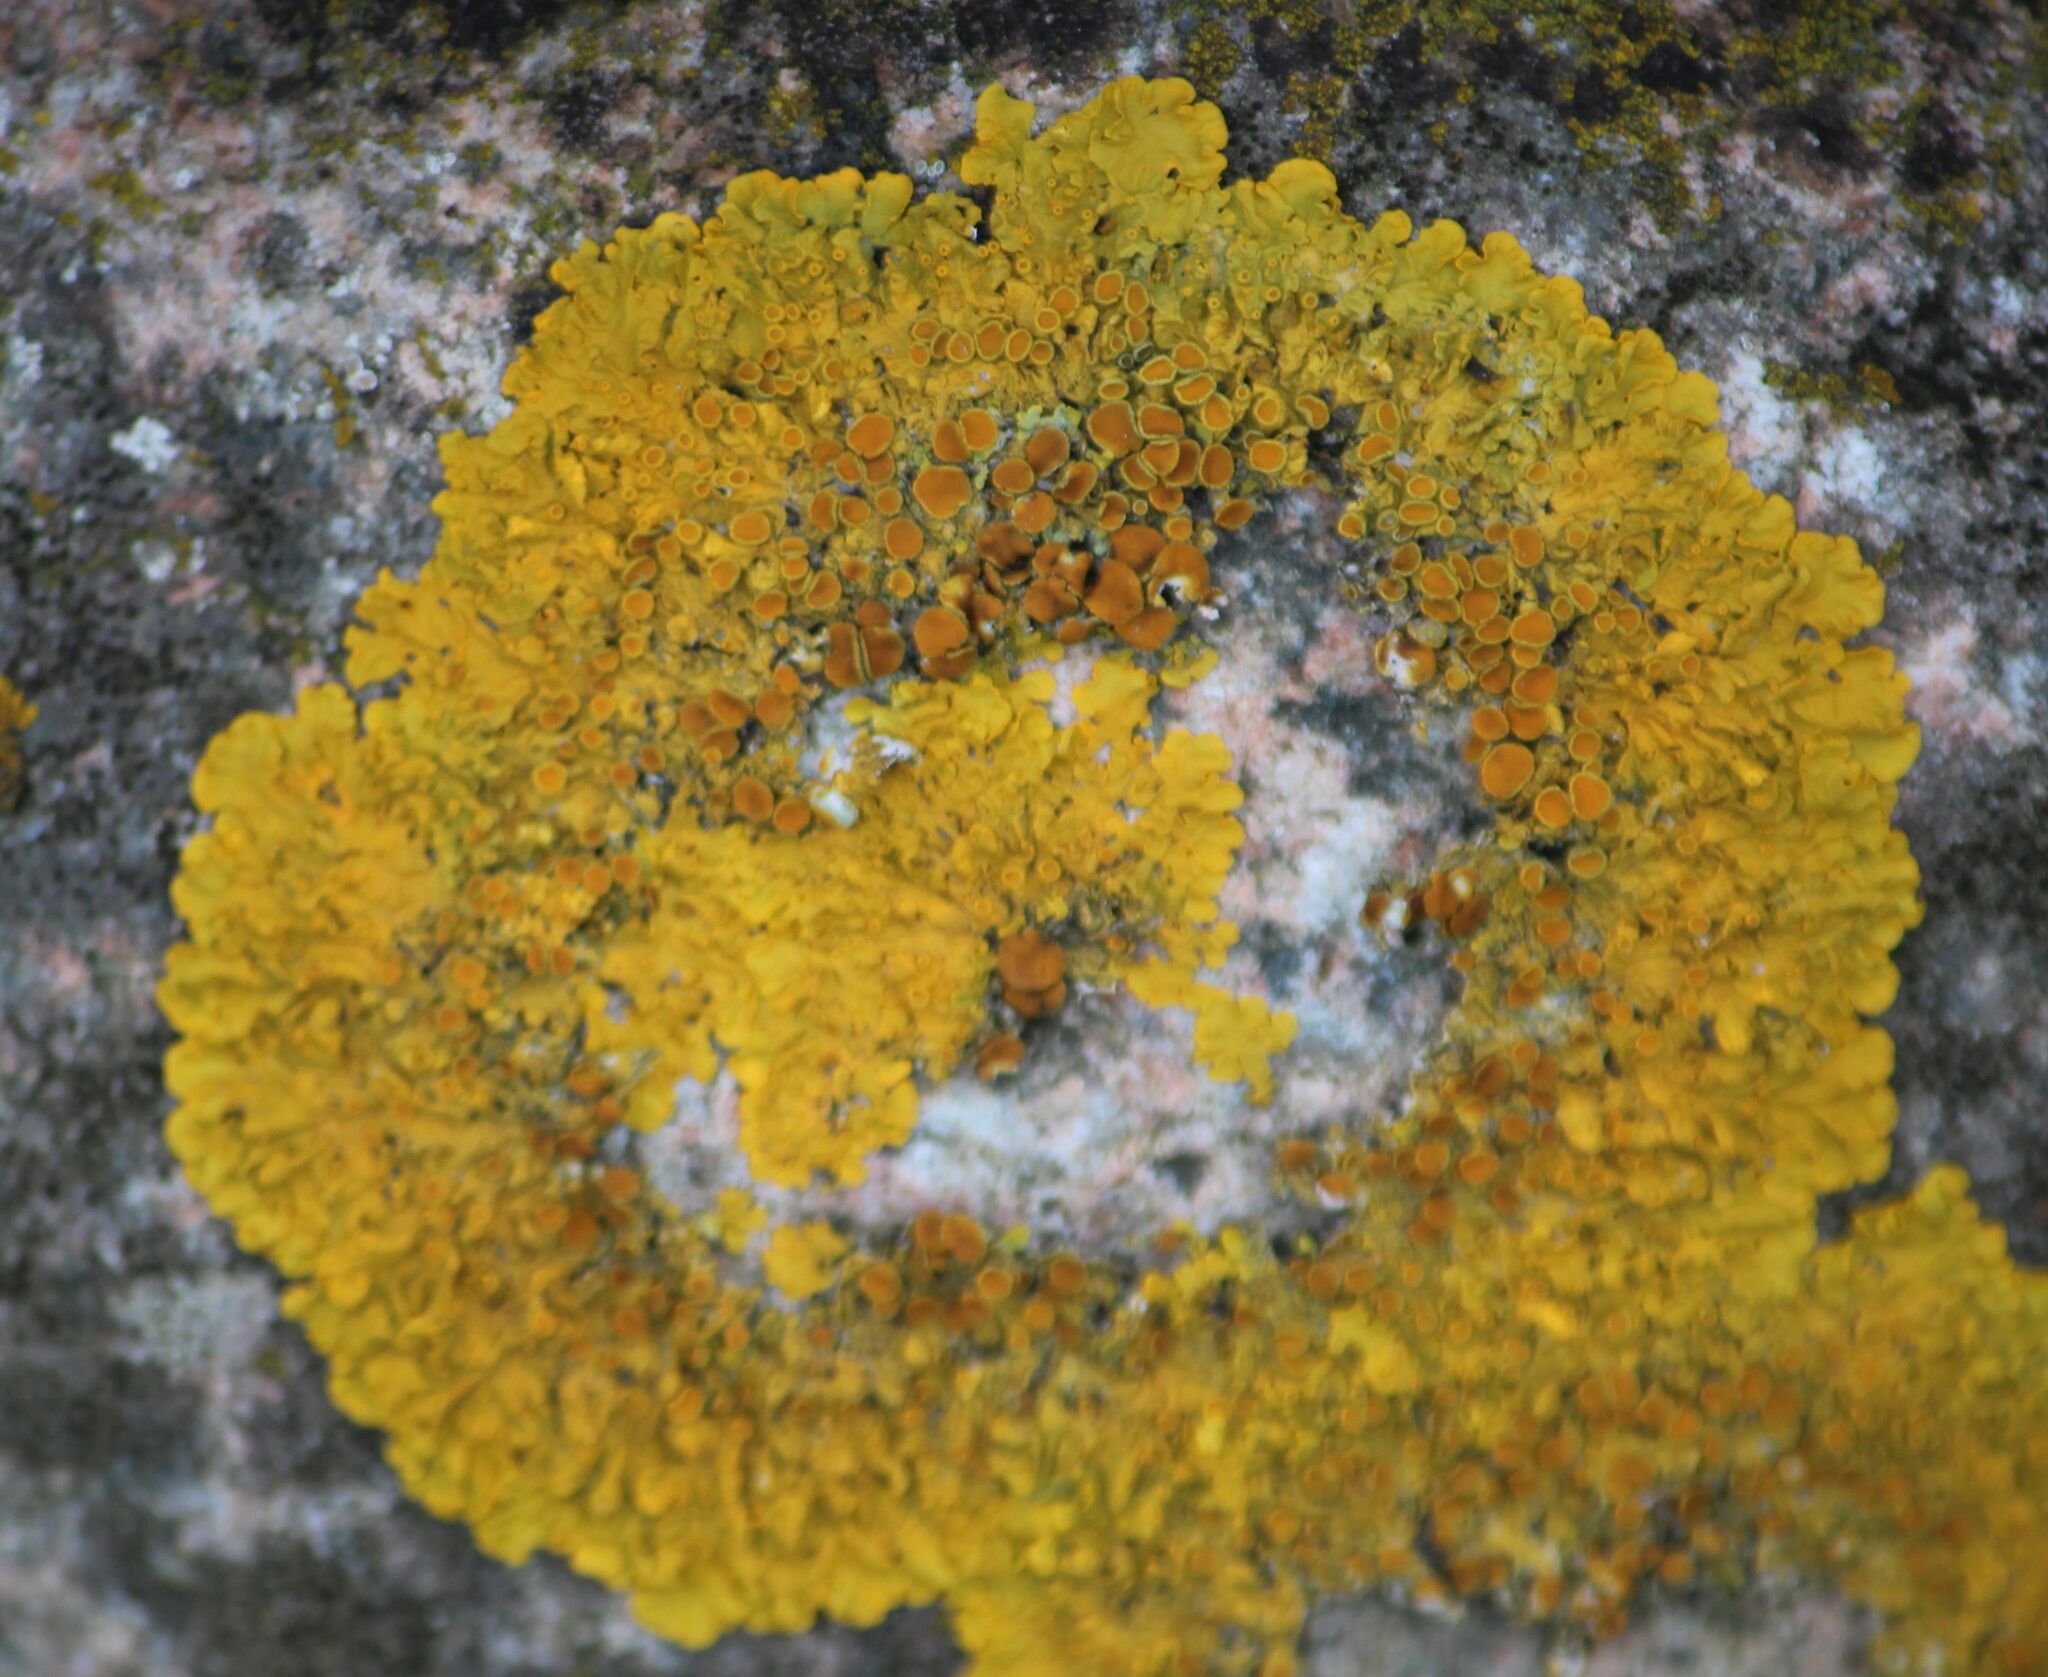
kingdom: Fungi
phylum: Ascomycota
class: Lecanoromycetes
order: Teloschistales
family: Teloschistaceae
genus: Xanthoria
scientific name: Xanthoria parietina
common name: Common orange lichen
